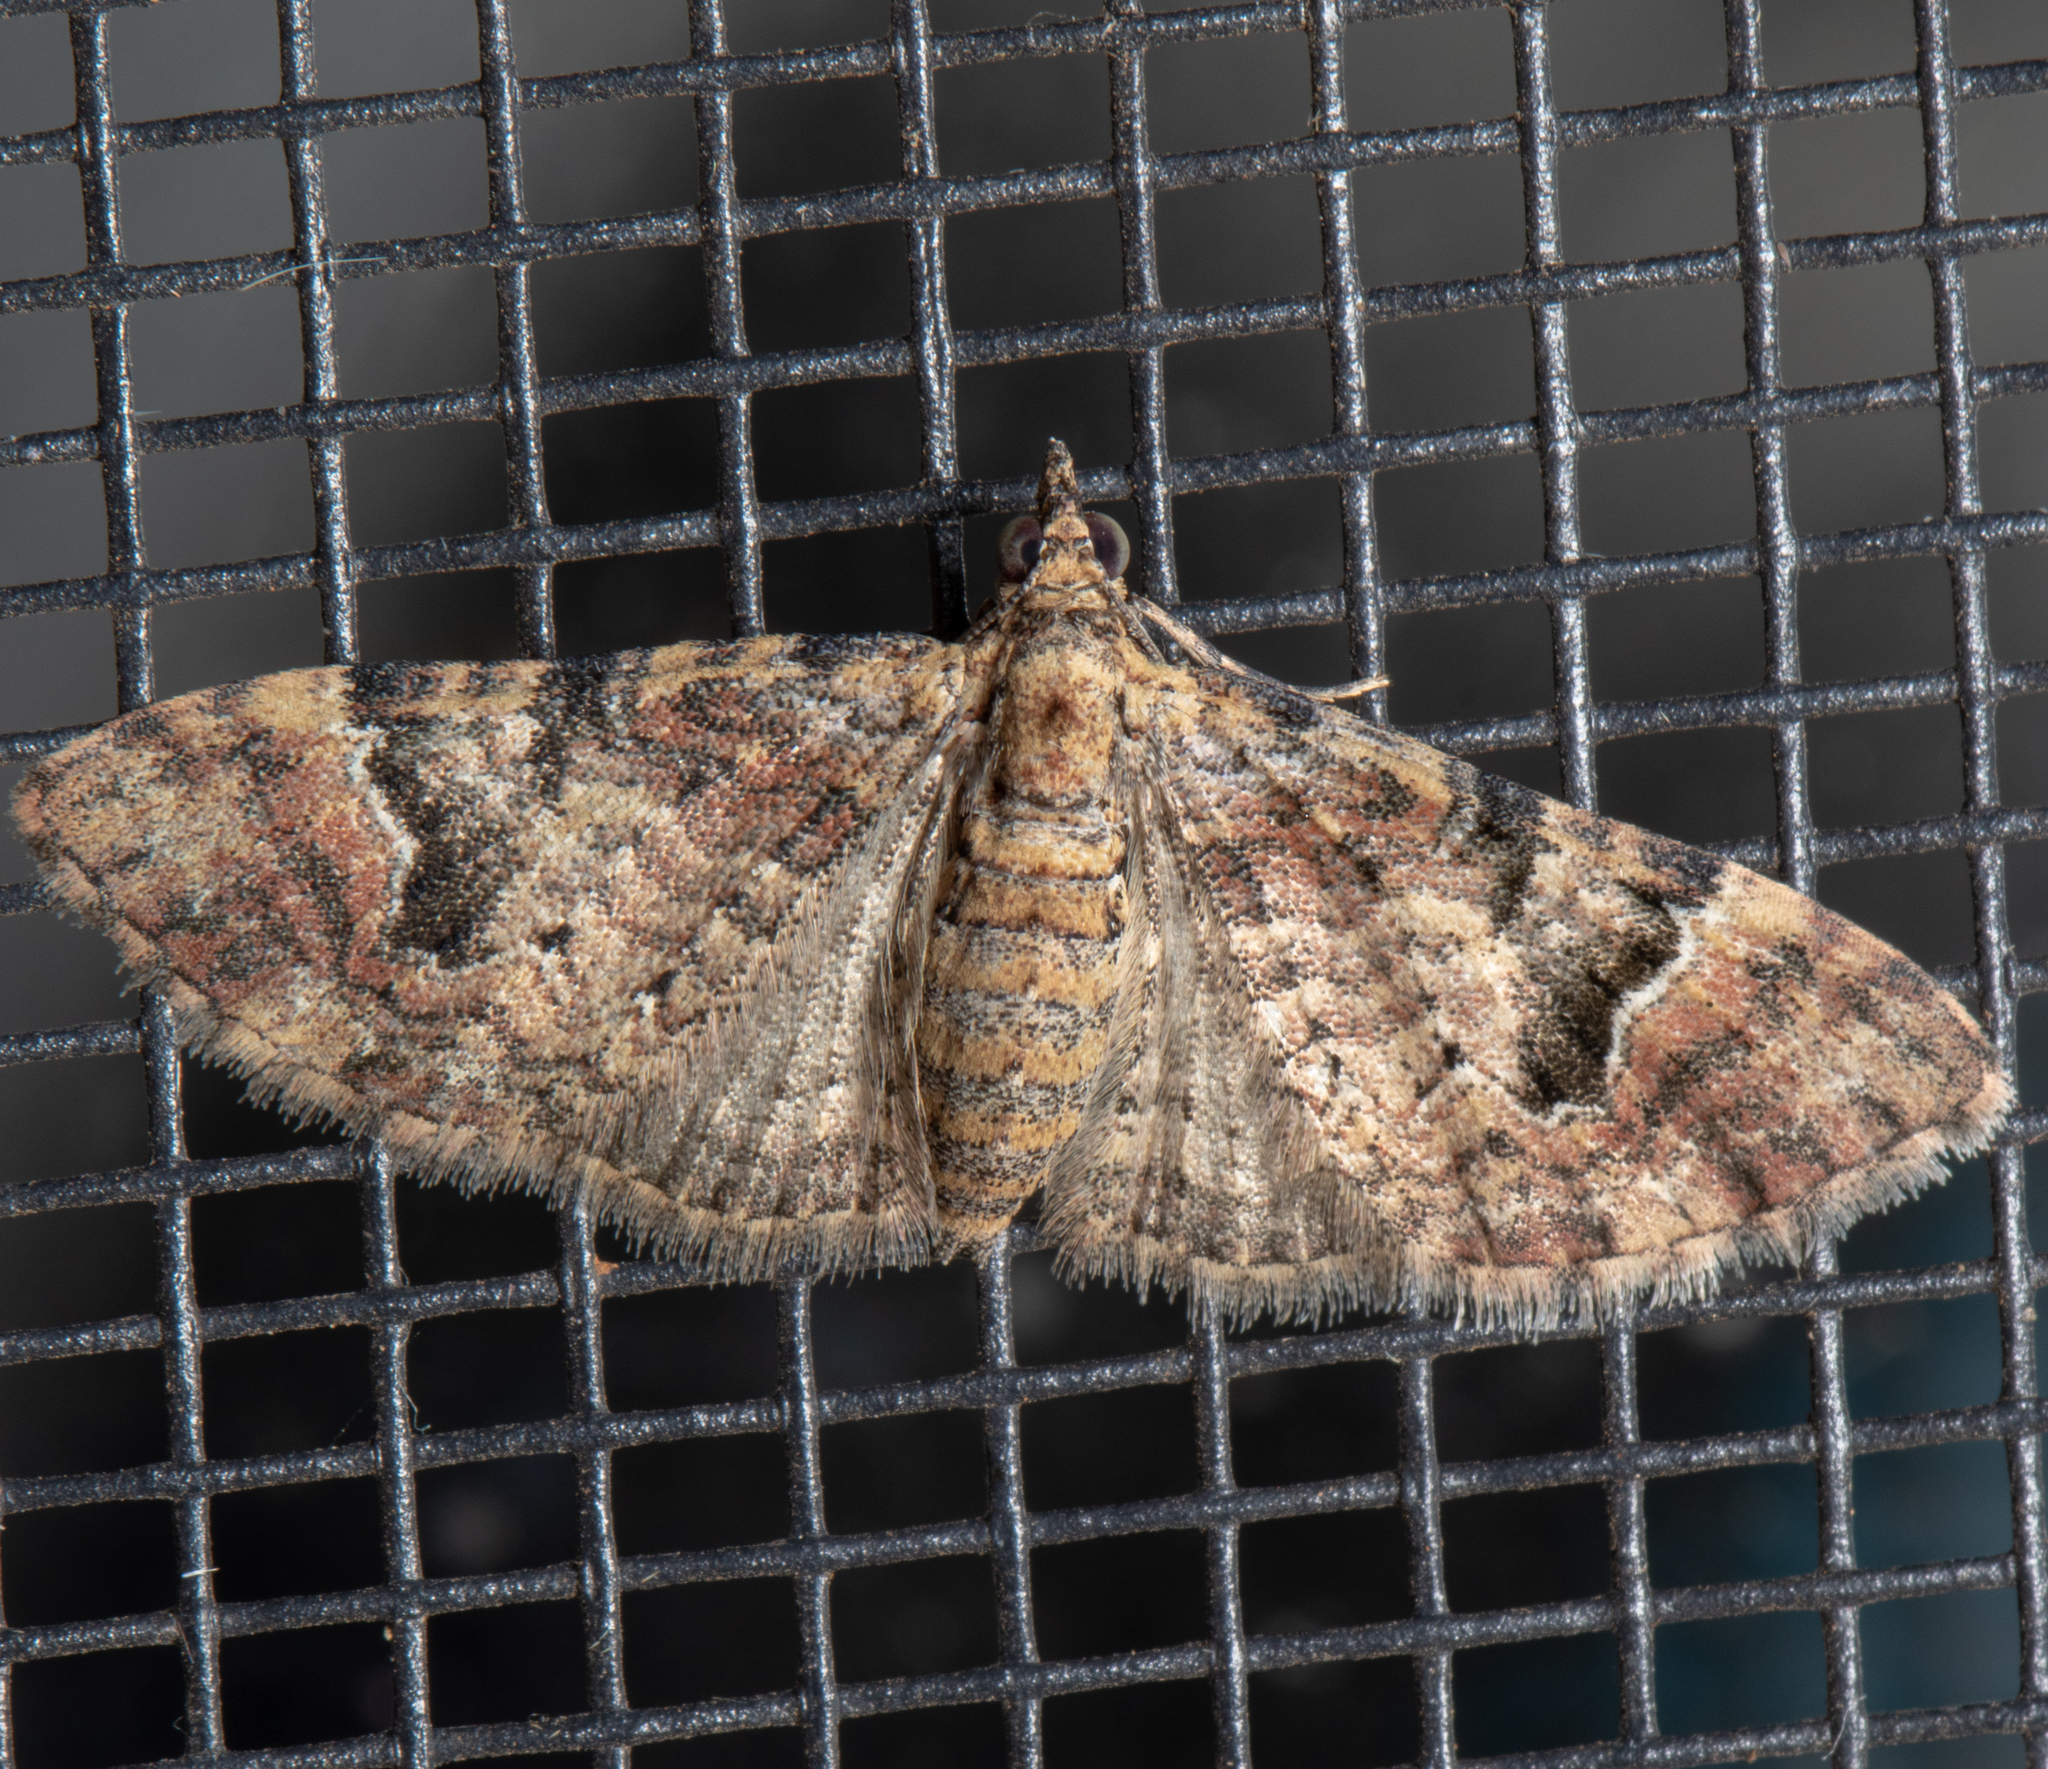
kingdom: Animalia
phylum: Arthropoda
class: Insecta
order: Lepidoptera
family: Geometridae
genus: Mnesiloba
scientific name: Mnesiloba eupitheciata
